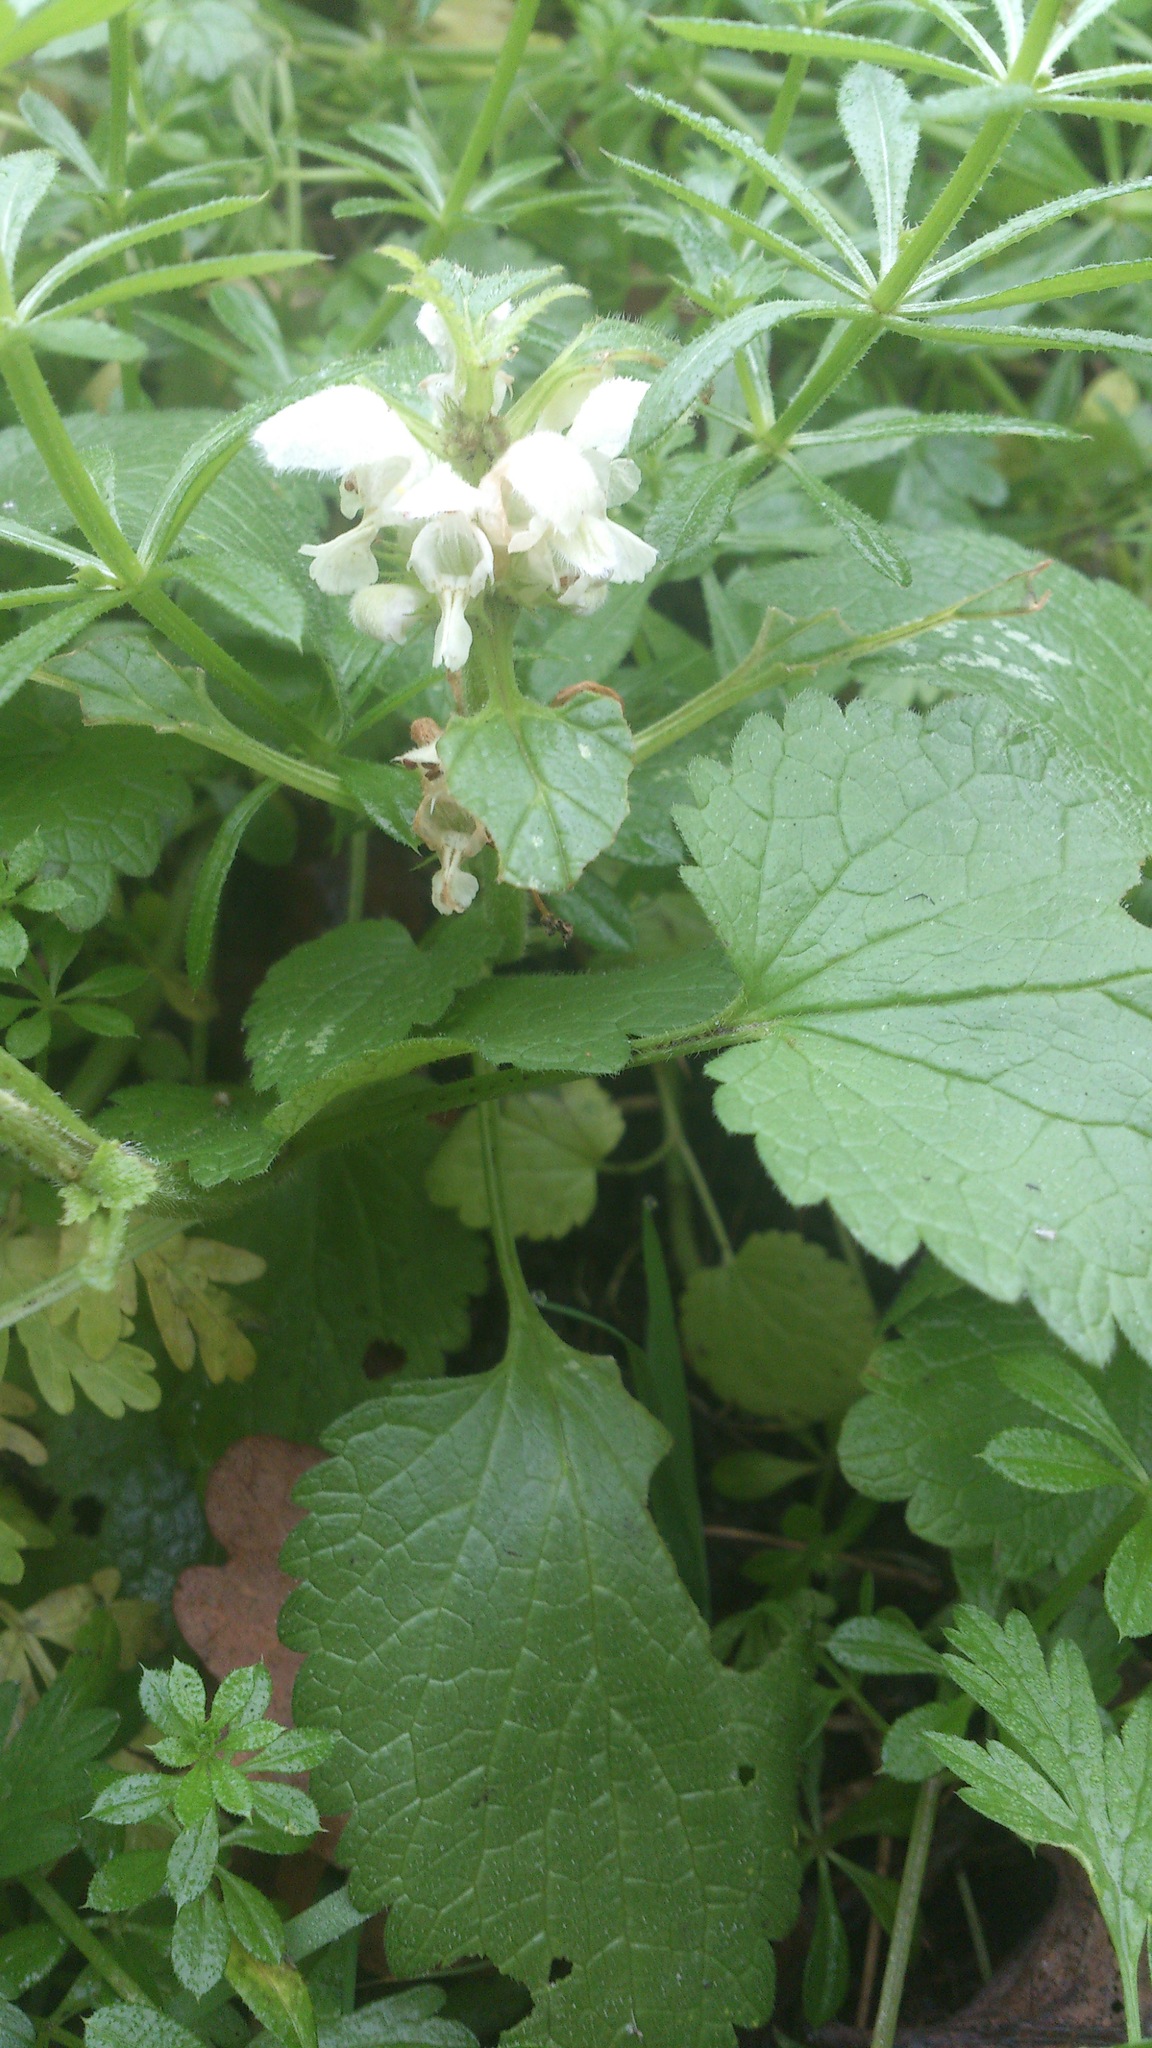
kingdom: Plantae
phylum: Tracheophyta
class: Magnoliopsida
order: Lamiales
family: Lamiaceae
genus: Lamium
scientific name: Lamium album
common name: White dead-nettle
